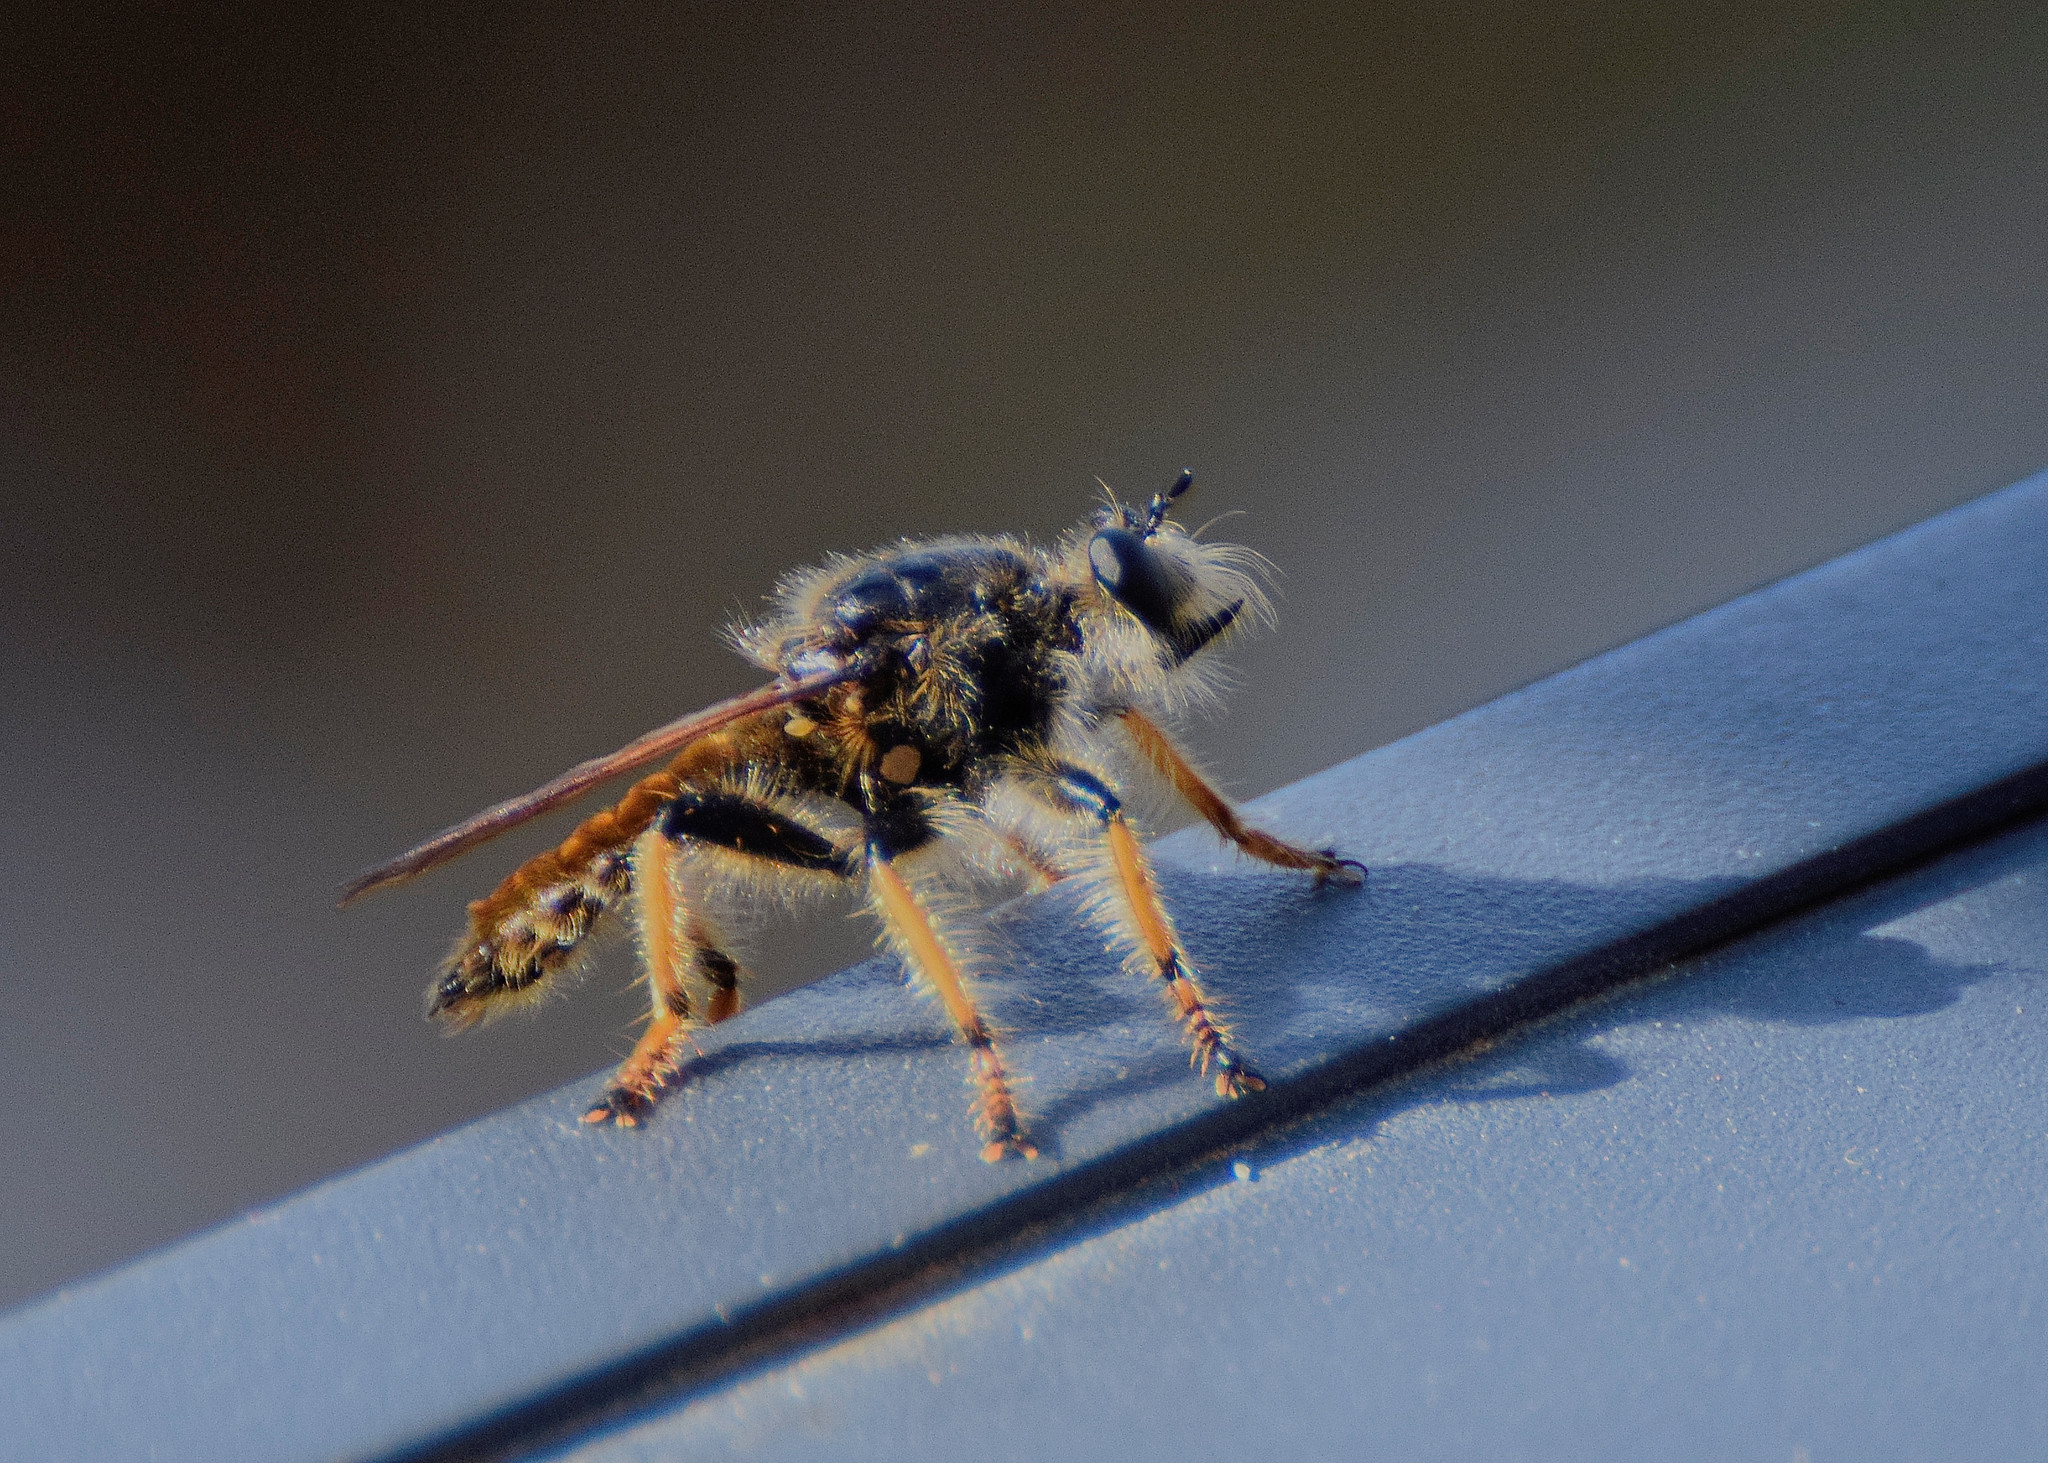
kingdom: Animalia
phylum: Arthropoda
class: Insecta
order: Diptera
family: Asilidae
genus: Pogonosoma
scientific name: Pogonosoma maroccanum
